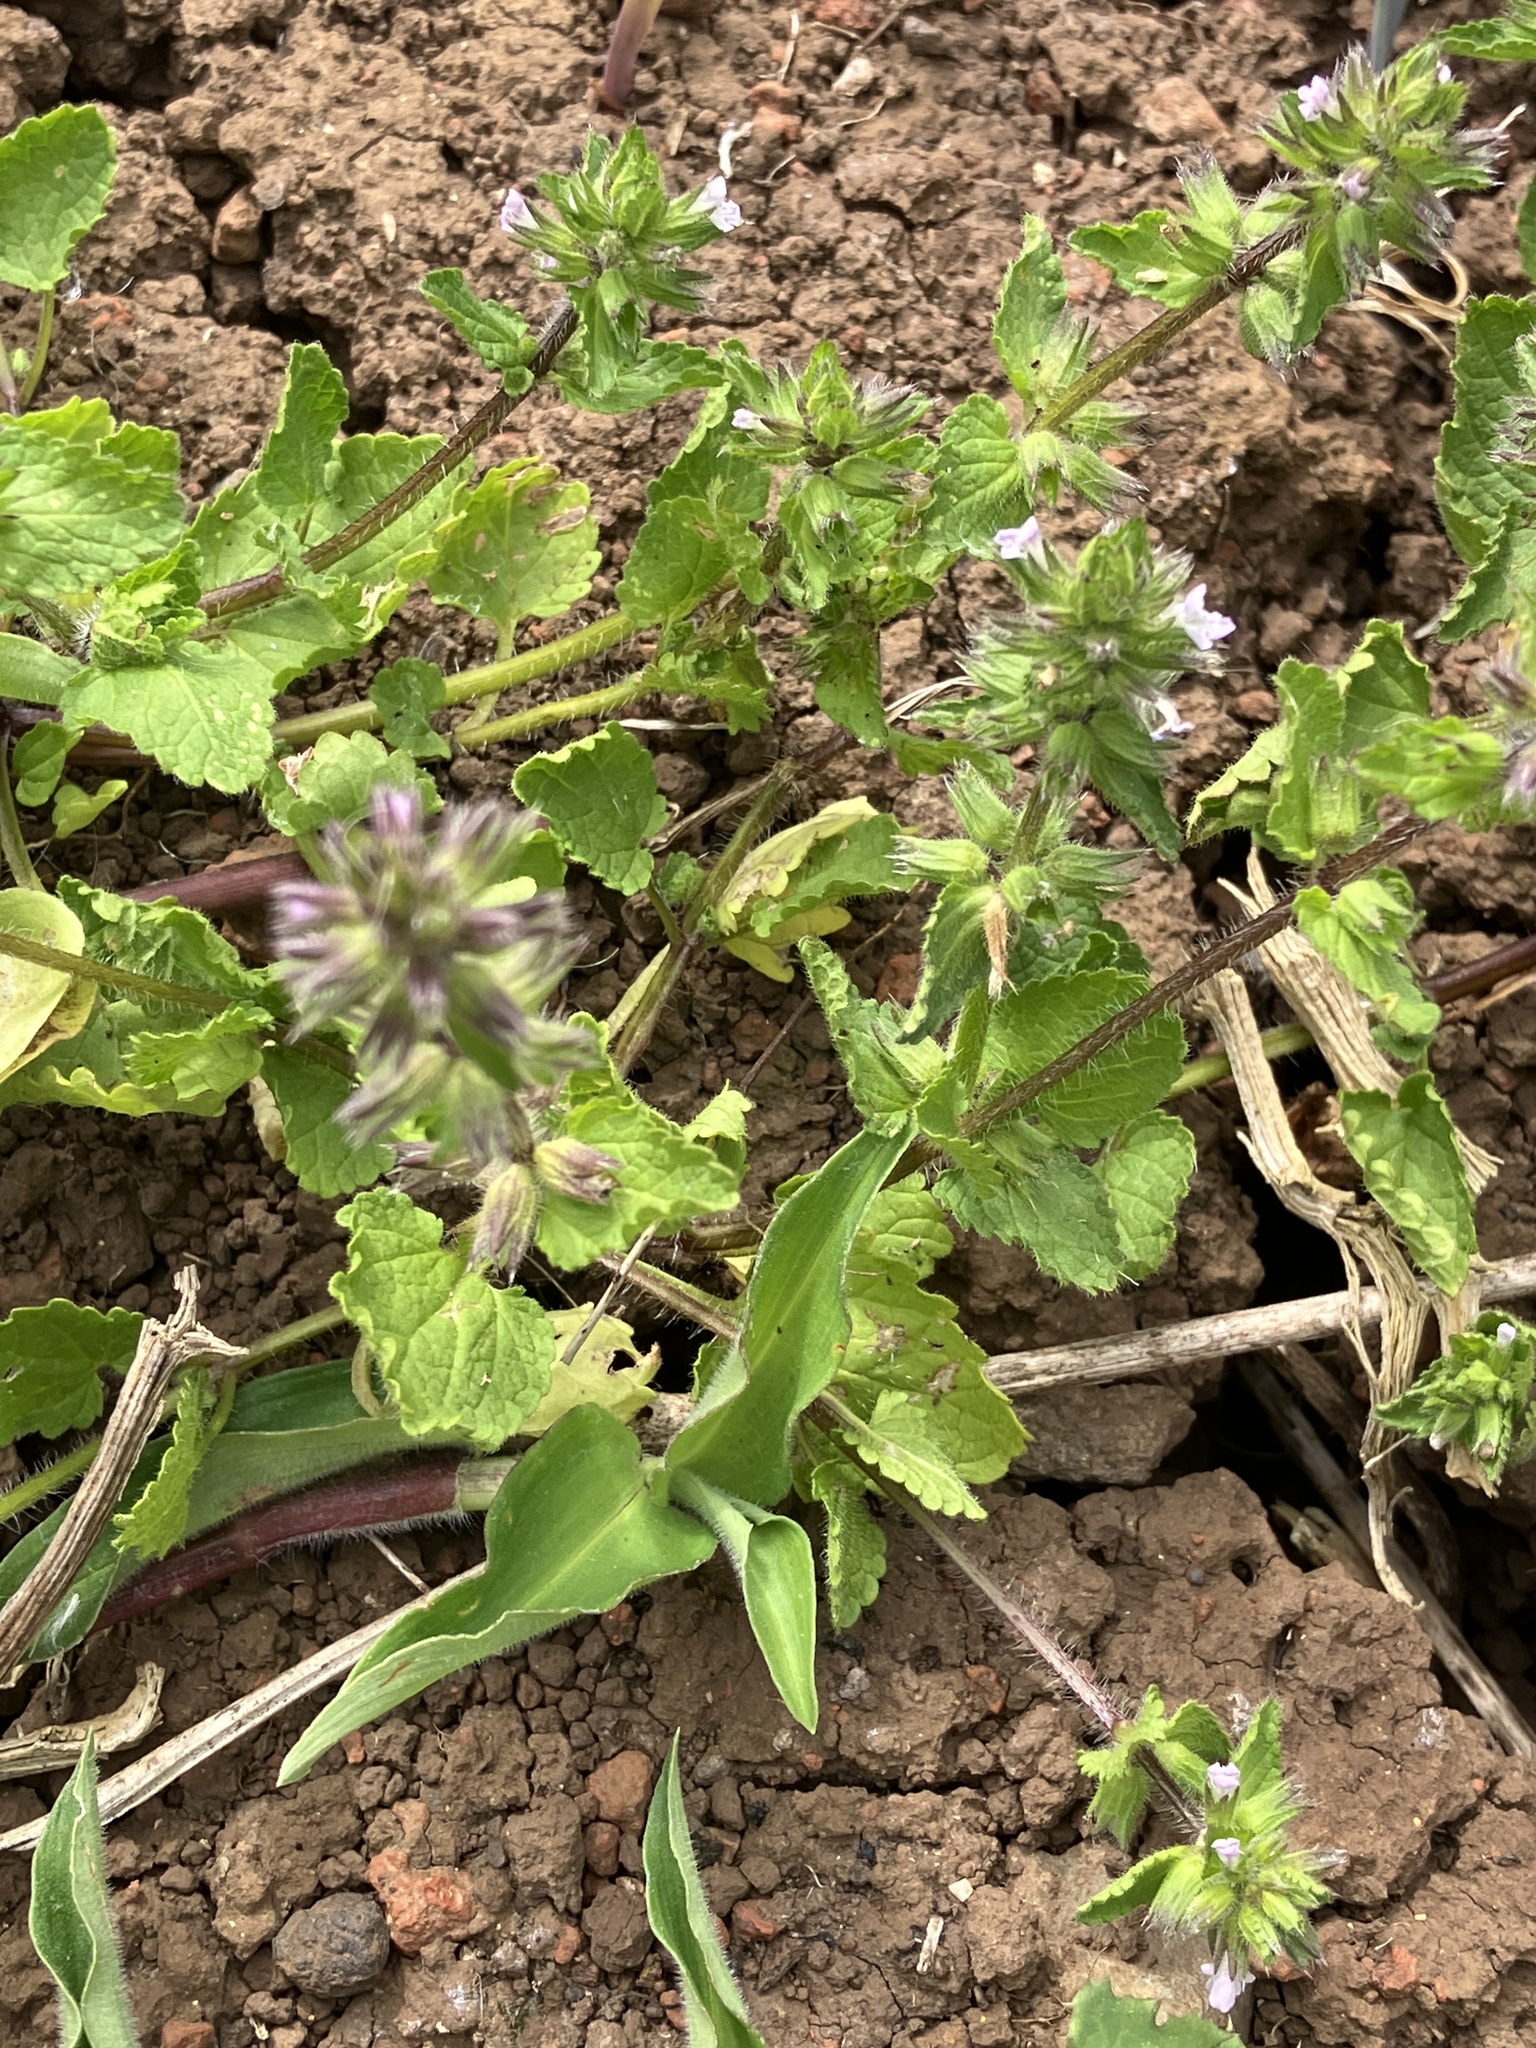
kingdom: Plantae
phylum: Tracheophyta
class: Magnoliopsida
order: Lamiales
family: Lamiaceae
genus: Stachys
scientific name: Stachys arvensis
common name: Field woundwort
